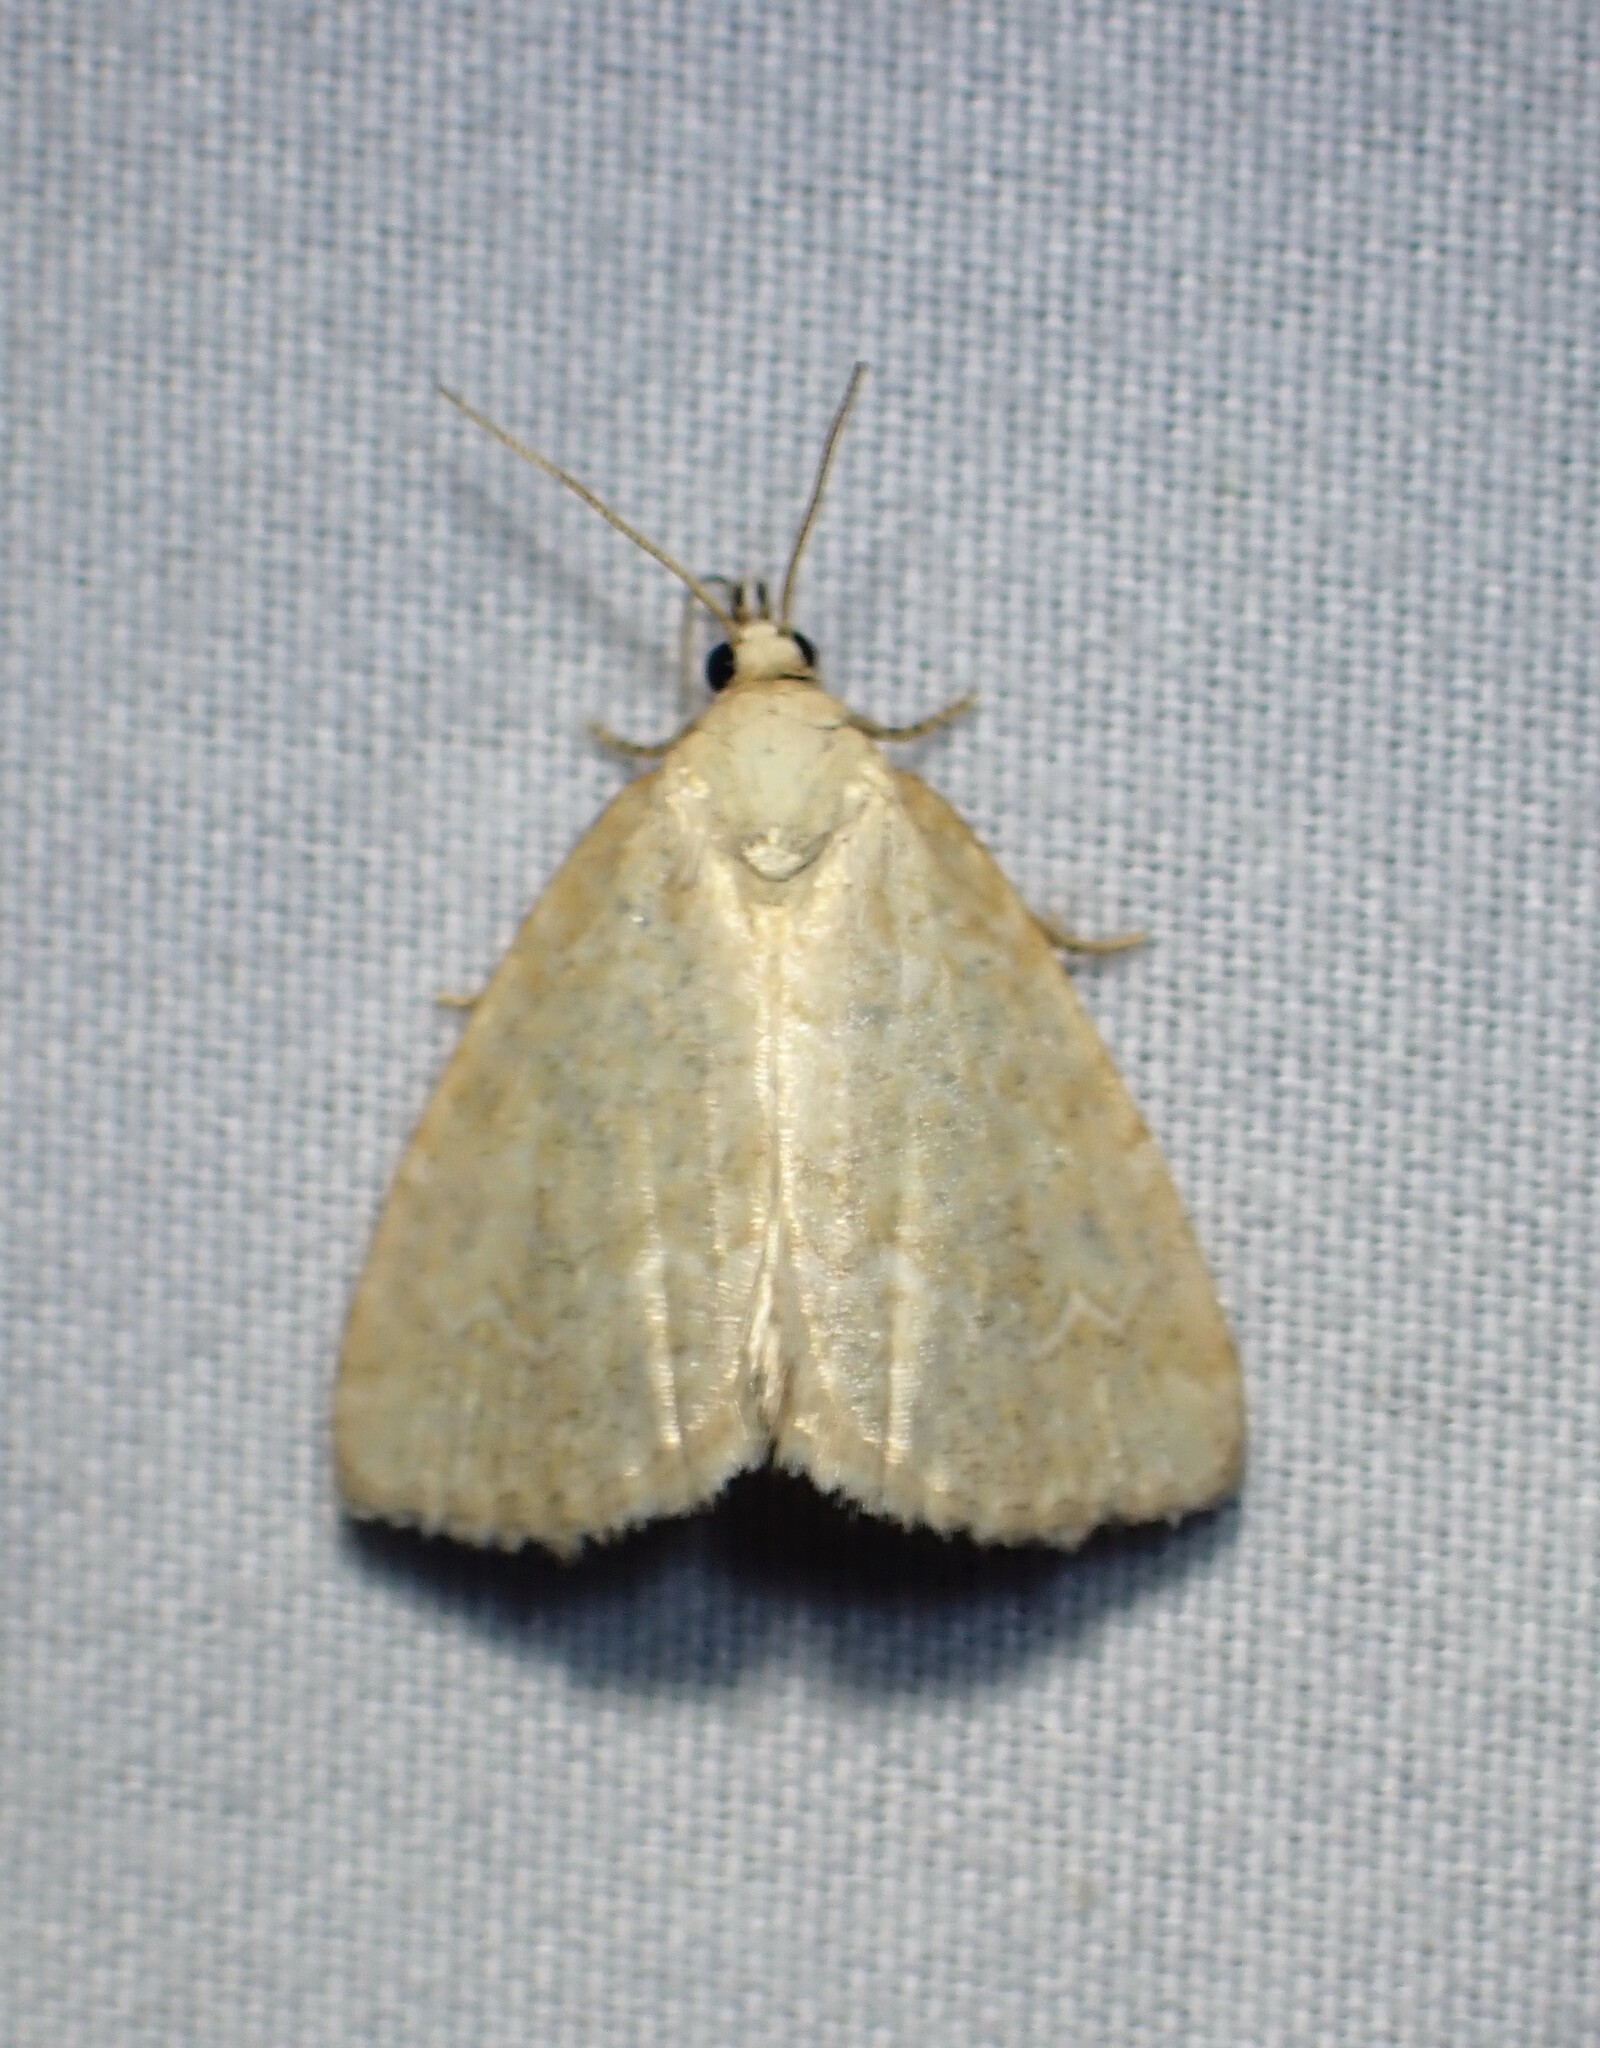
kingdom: Animalia
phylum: Arthropoda
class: Insecta
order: Lepidoptera
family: Noctuidae
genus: Protodeltote
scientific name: Protodeltote albidula
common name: Pale glyph
